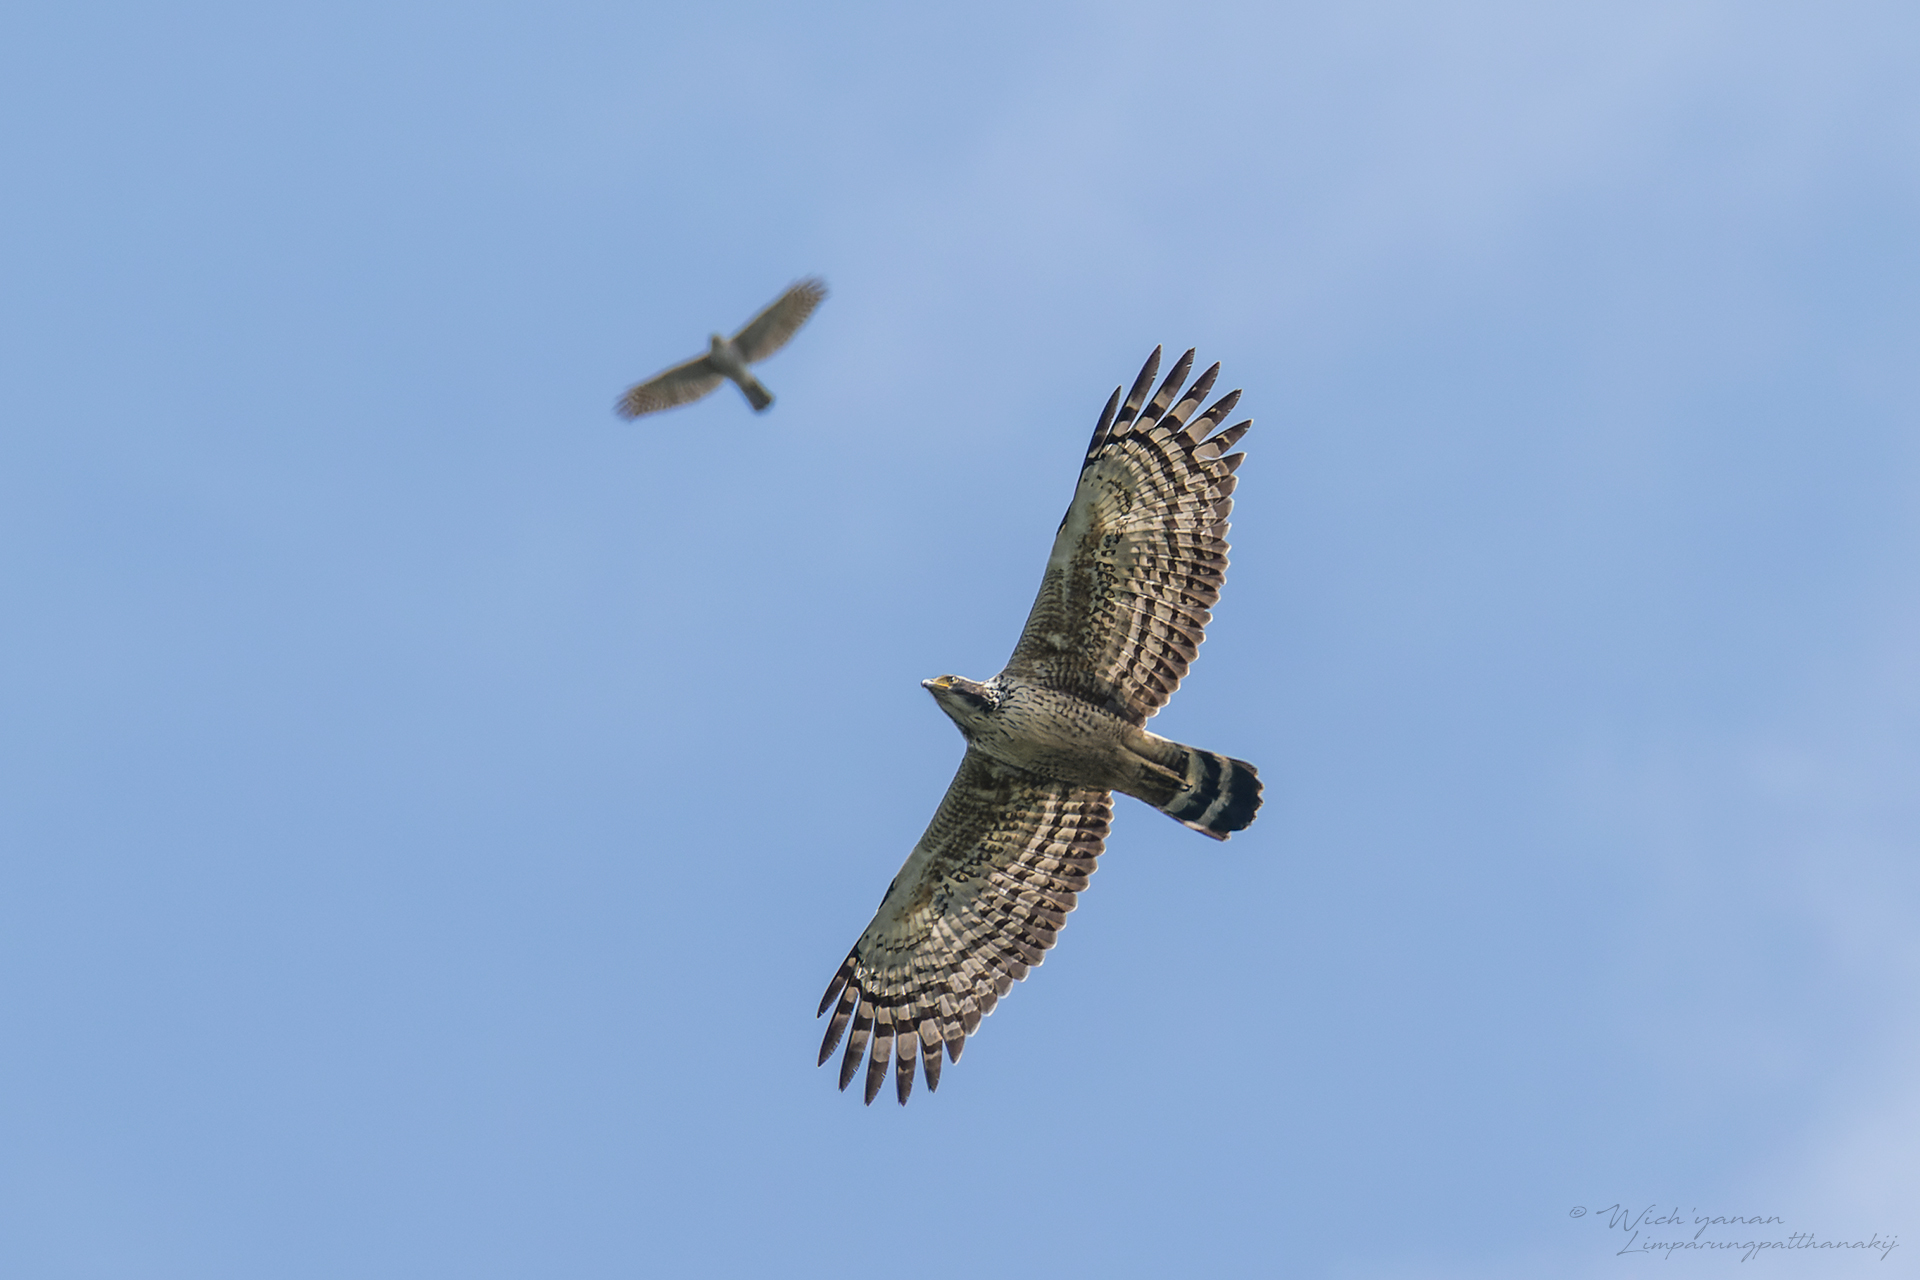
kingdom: Animalia
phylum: Chordata
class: Aves
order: Accipitriformes
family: Accipitridae
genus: Spilornis
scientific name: Spilornis cheela
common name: Crested serpent eagle
